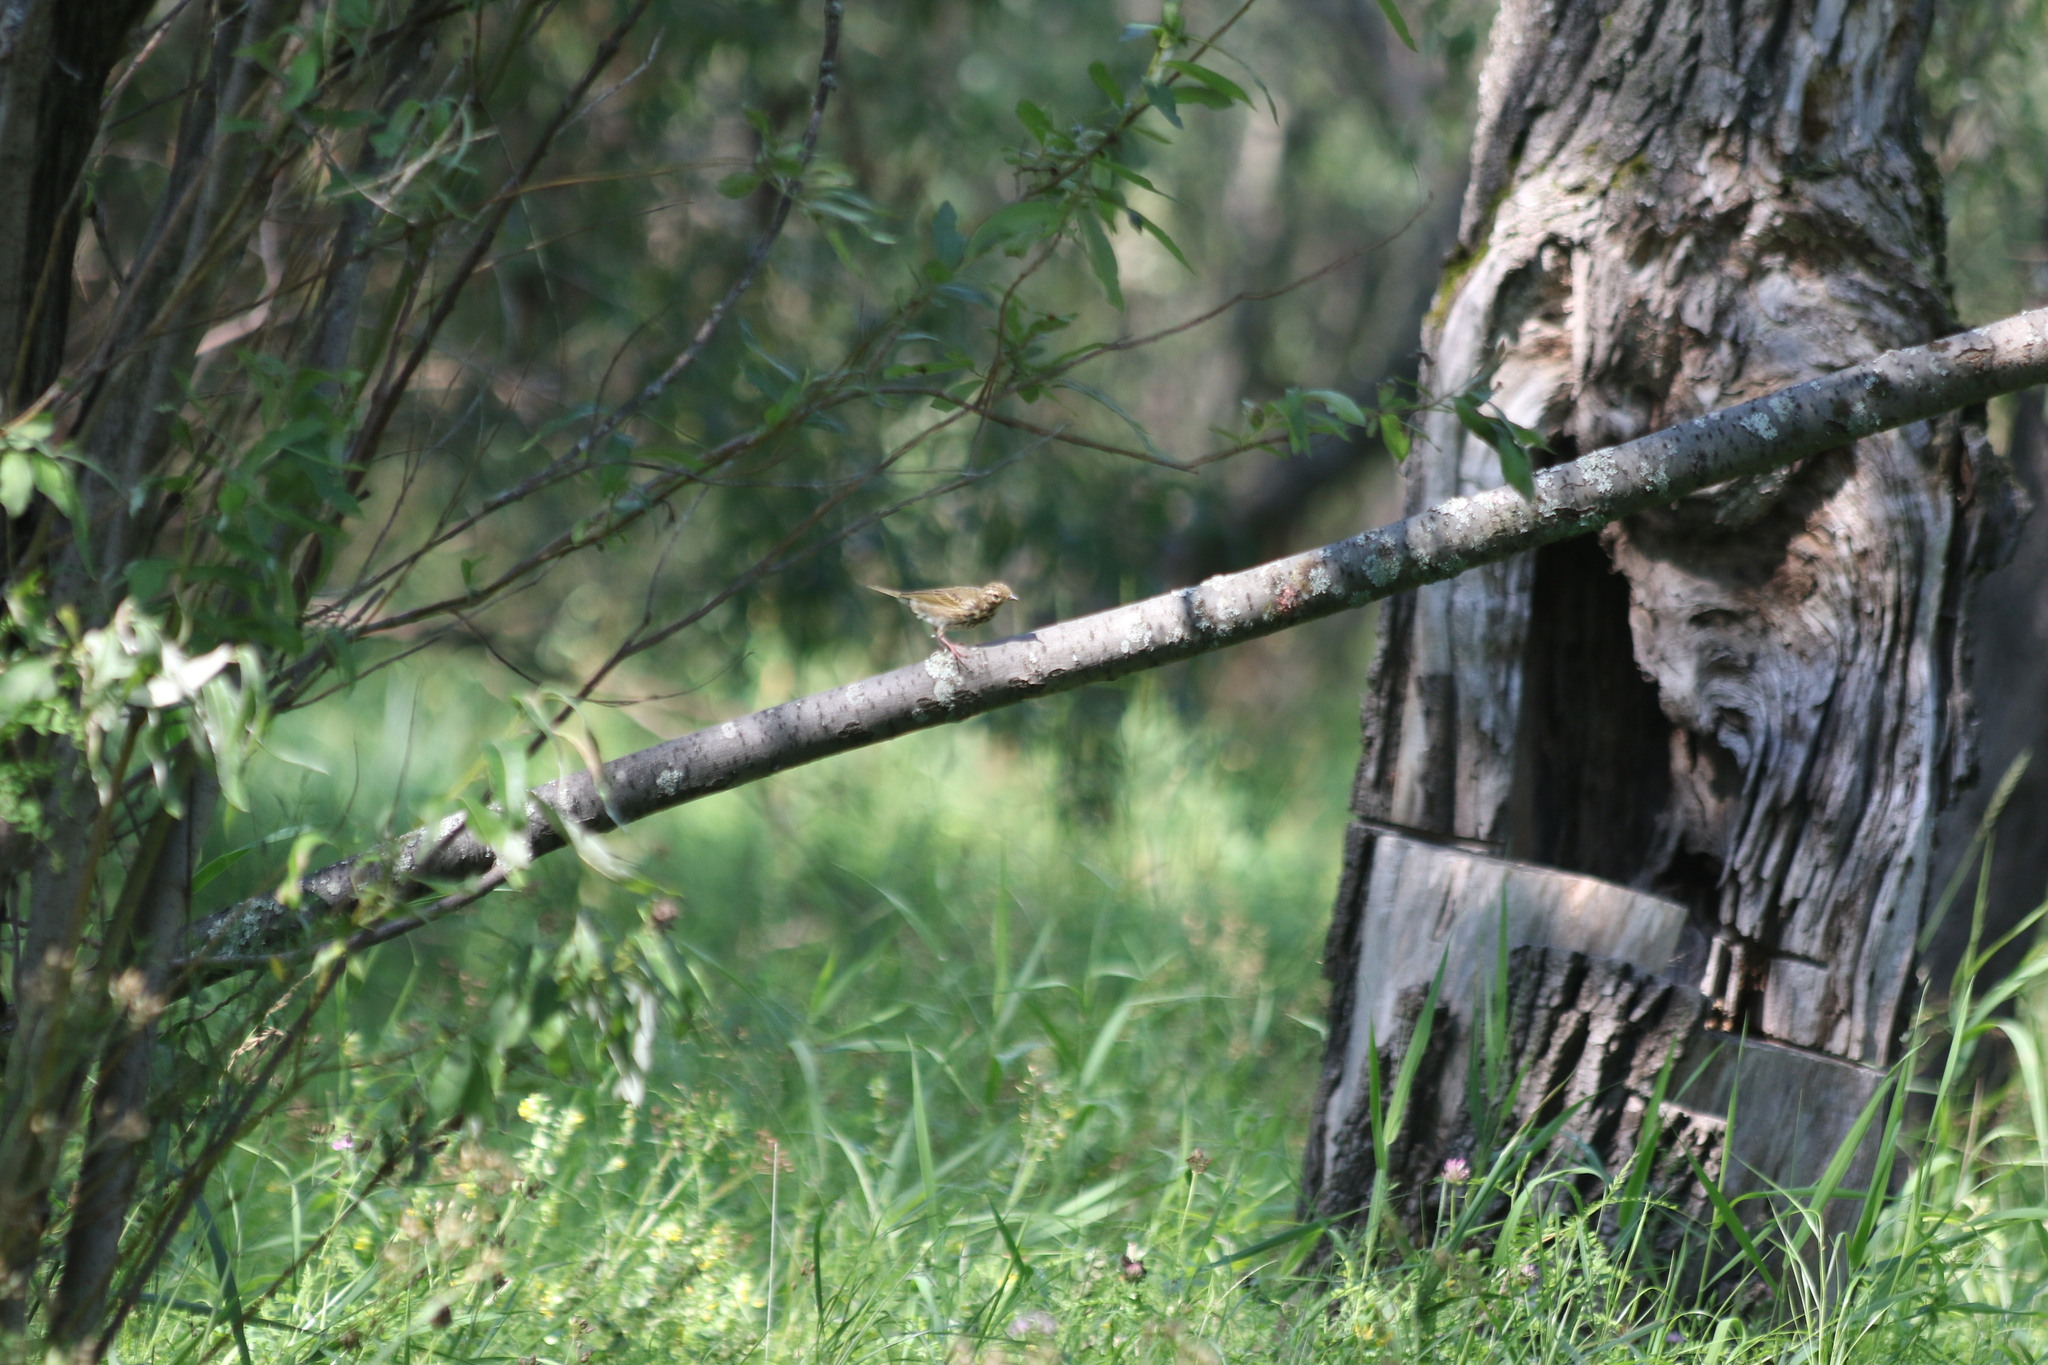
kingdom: Animalia
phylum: Chordata
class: Aves
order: Passeriformes
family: Motacillidae
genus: Anthus
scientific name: Anthus trivialis
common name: Tree pipit
